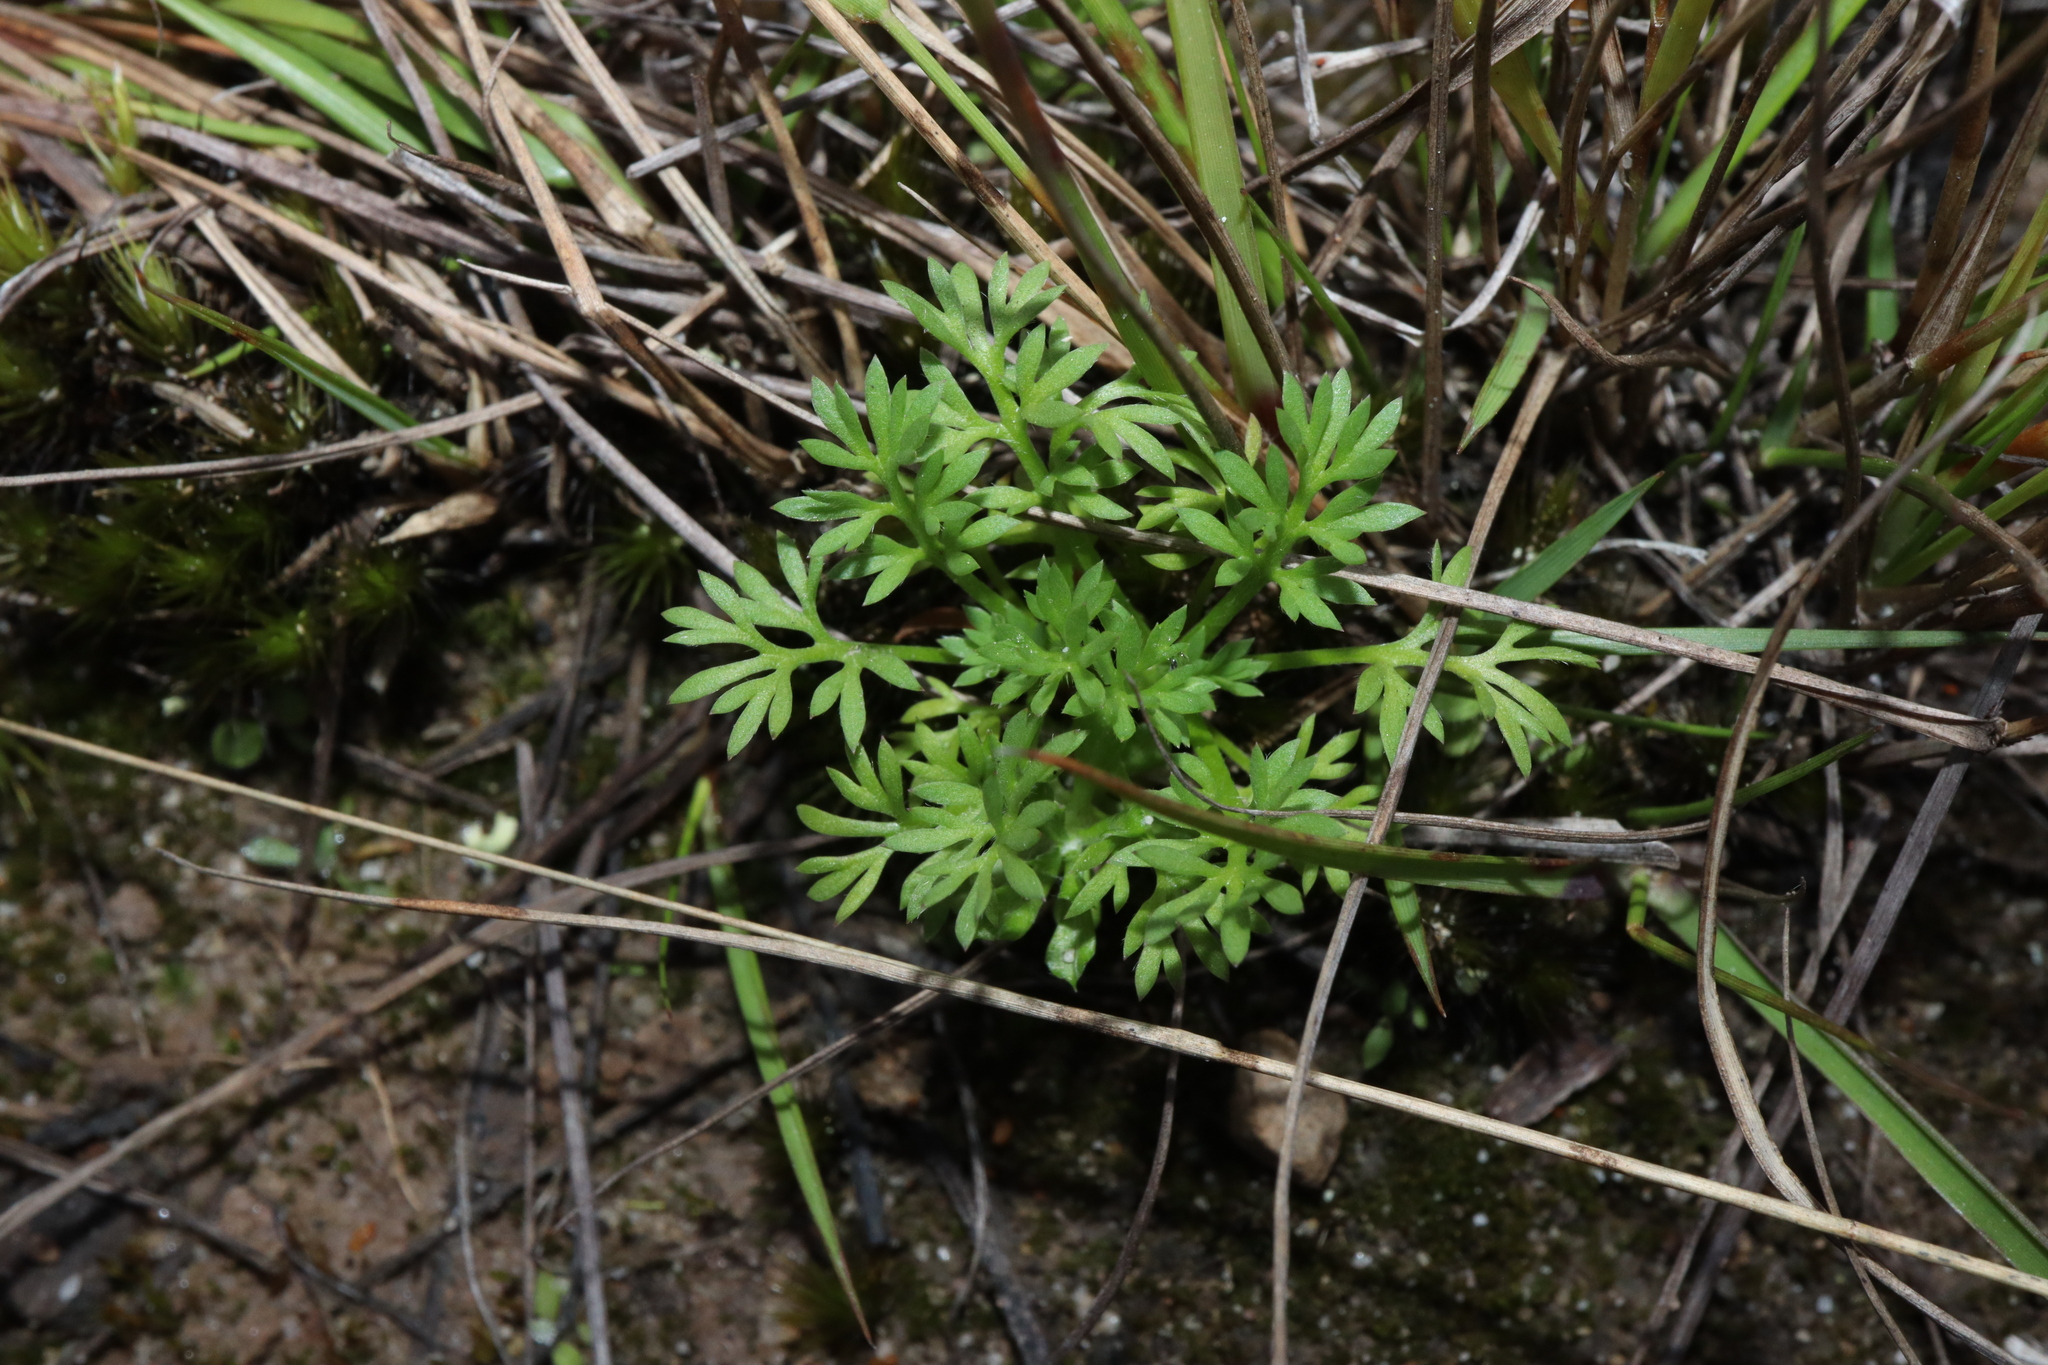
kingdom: Plantae
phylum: Tracheophyta
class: Magnoliopsida
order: Asterales
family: Asteraceae
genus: Cotula
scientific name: Cotula australis
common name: Australian waterbuttons
